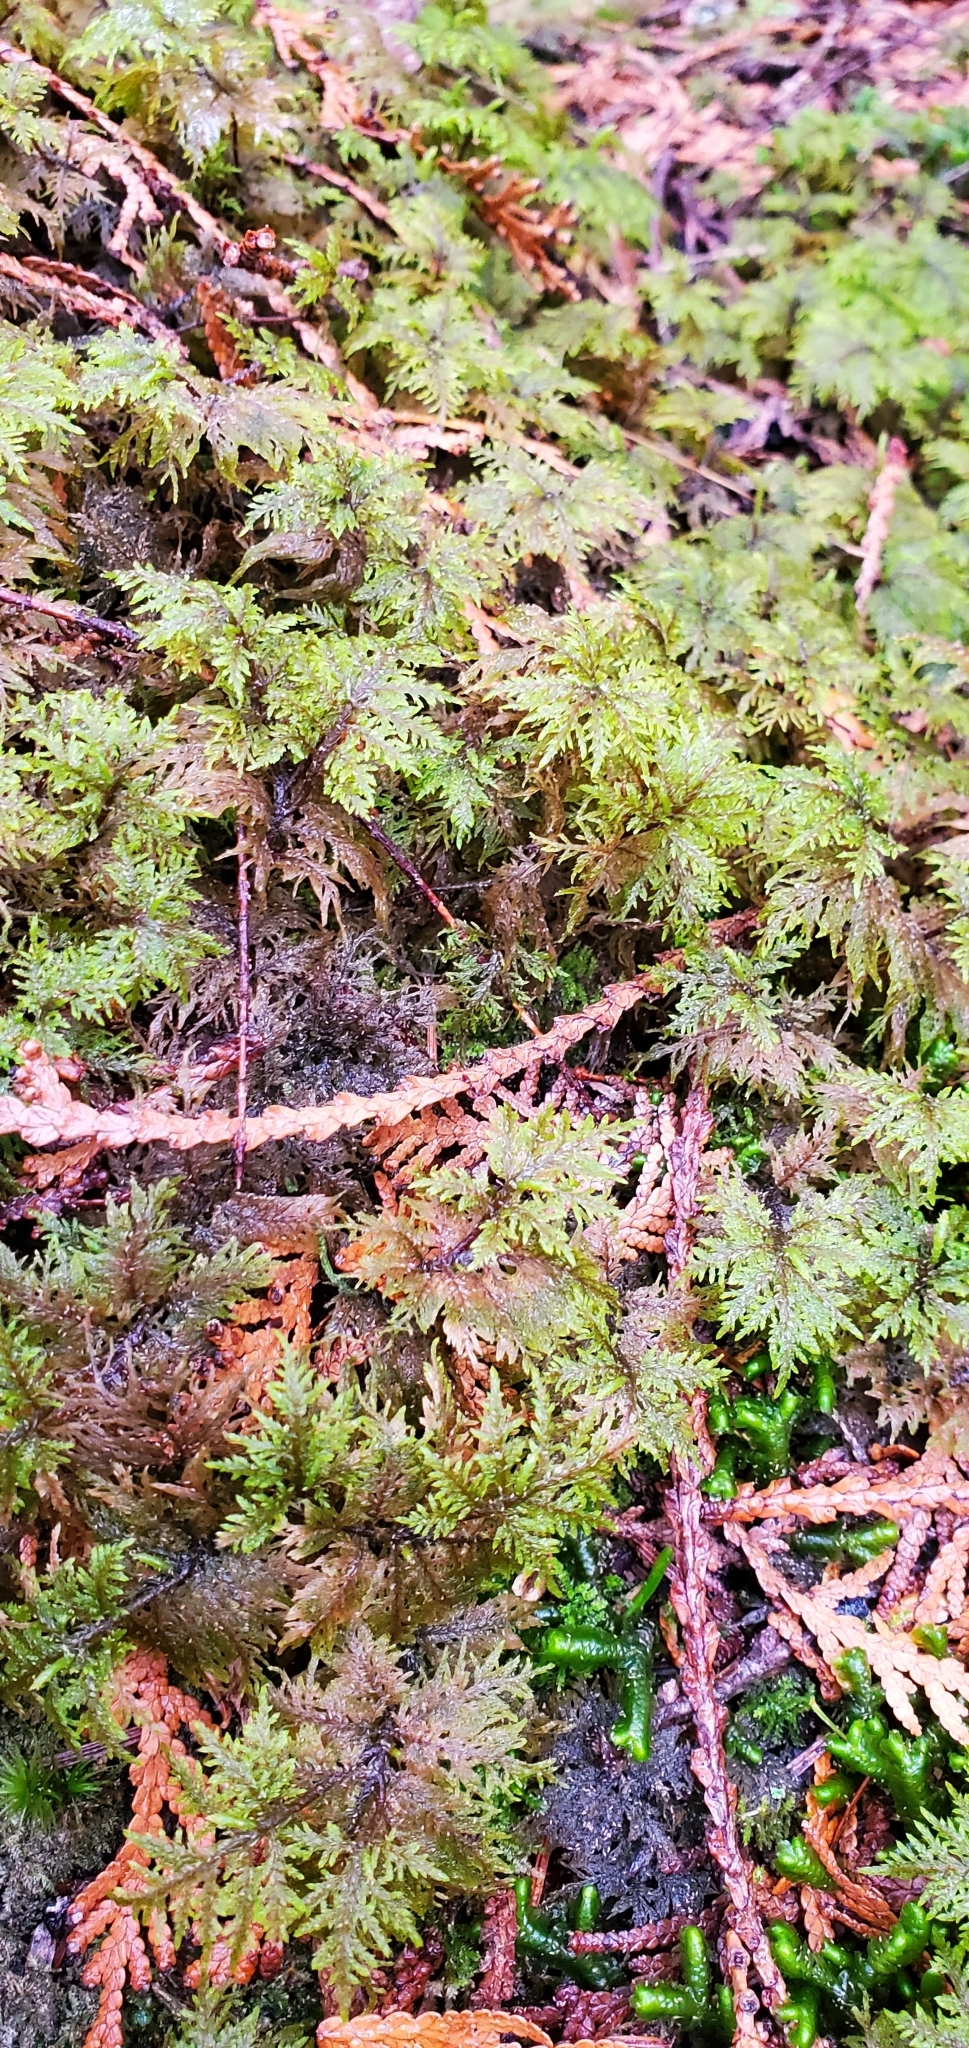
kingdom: Plantae
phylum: Bryophyta
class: Bryopsida
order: Hypnales
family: Hylocomiaceae
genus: Hylocomium
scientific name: Hylocomium splendens
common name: Stairstep moss
